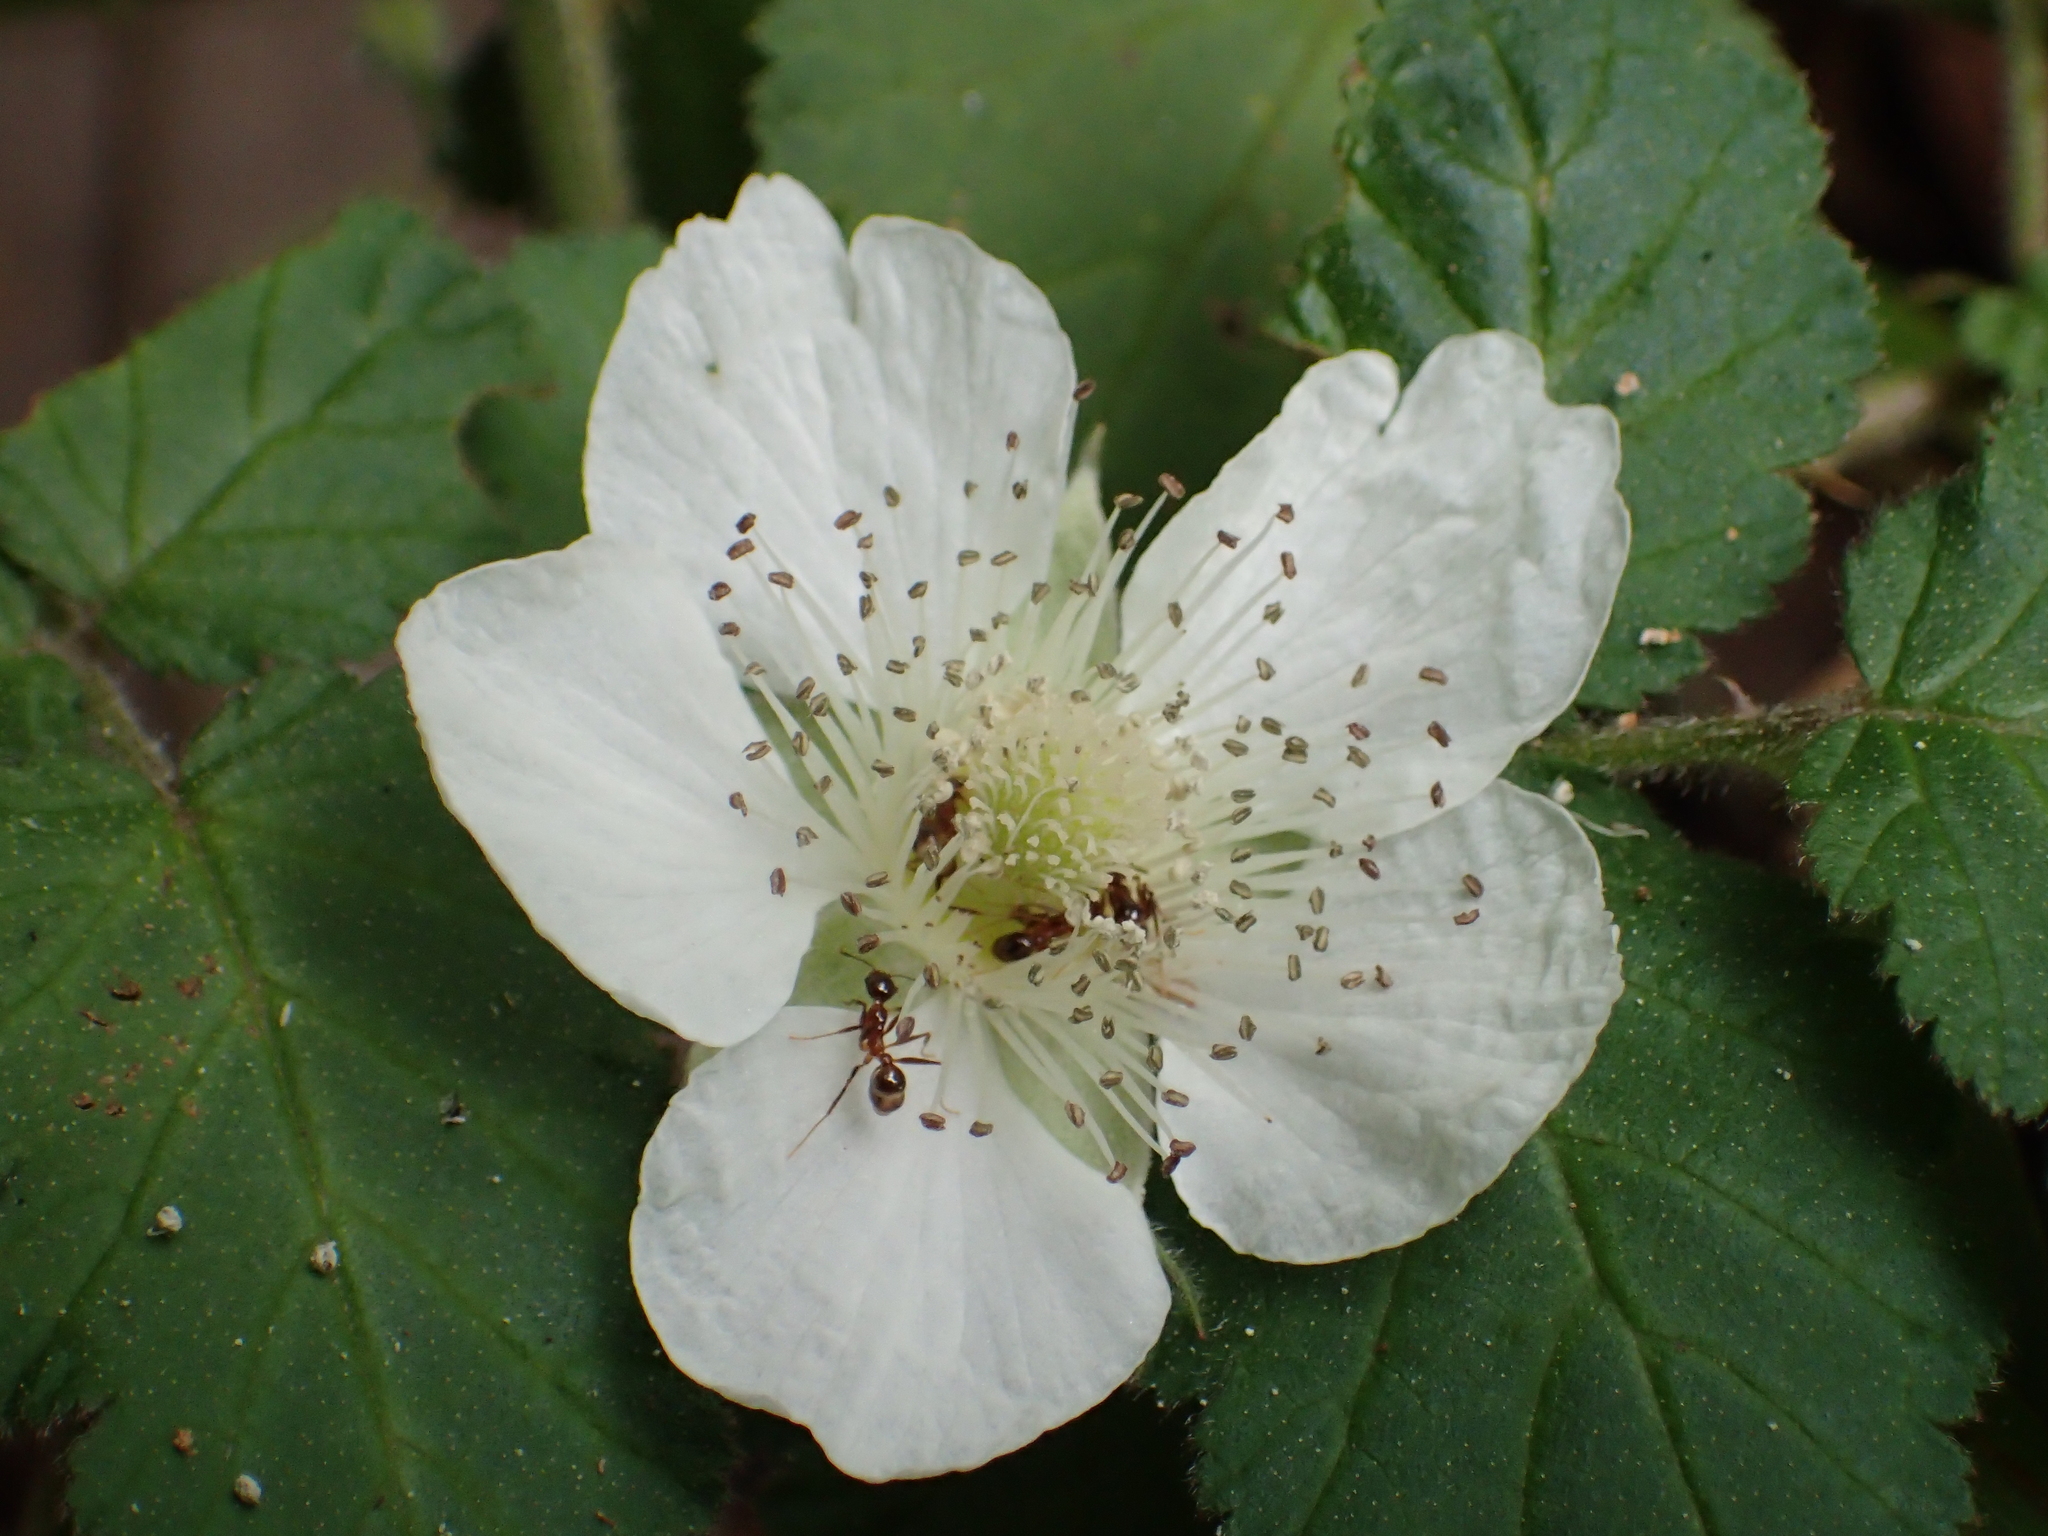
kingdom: Plantae
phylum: Tracheophyta
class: Magnoliopsida
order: Rosales
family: Rosaceae
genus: Rubus
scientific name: Rubus rosifolius
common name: Roseleaf raspberry
